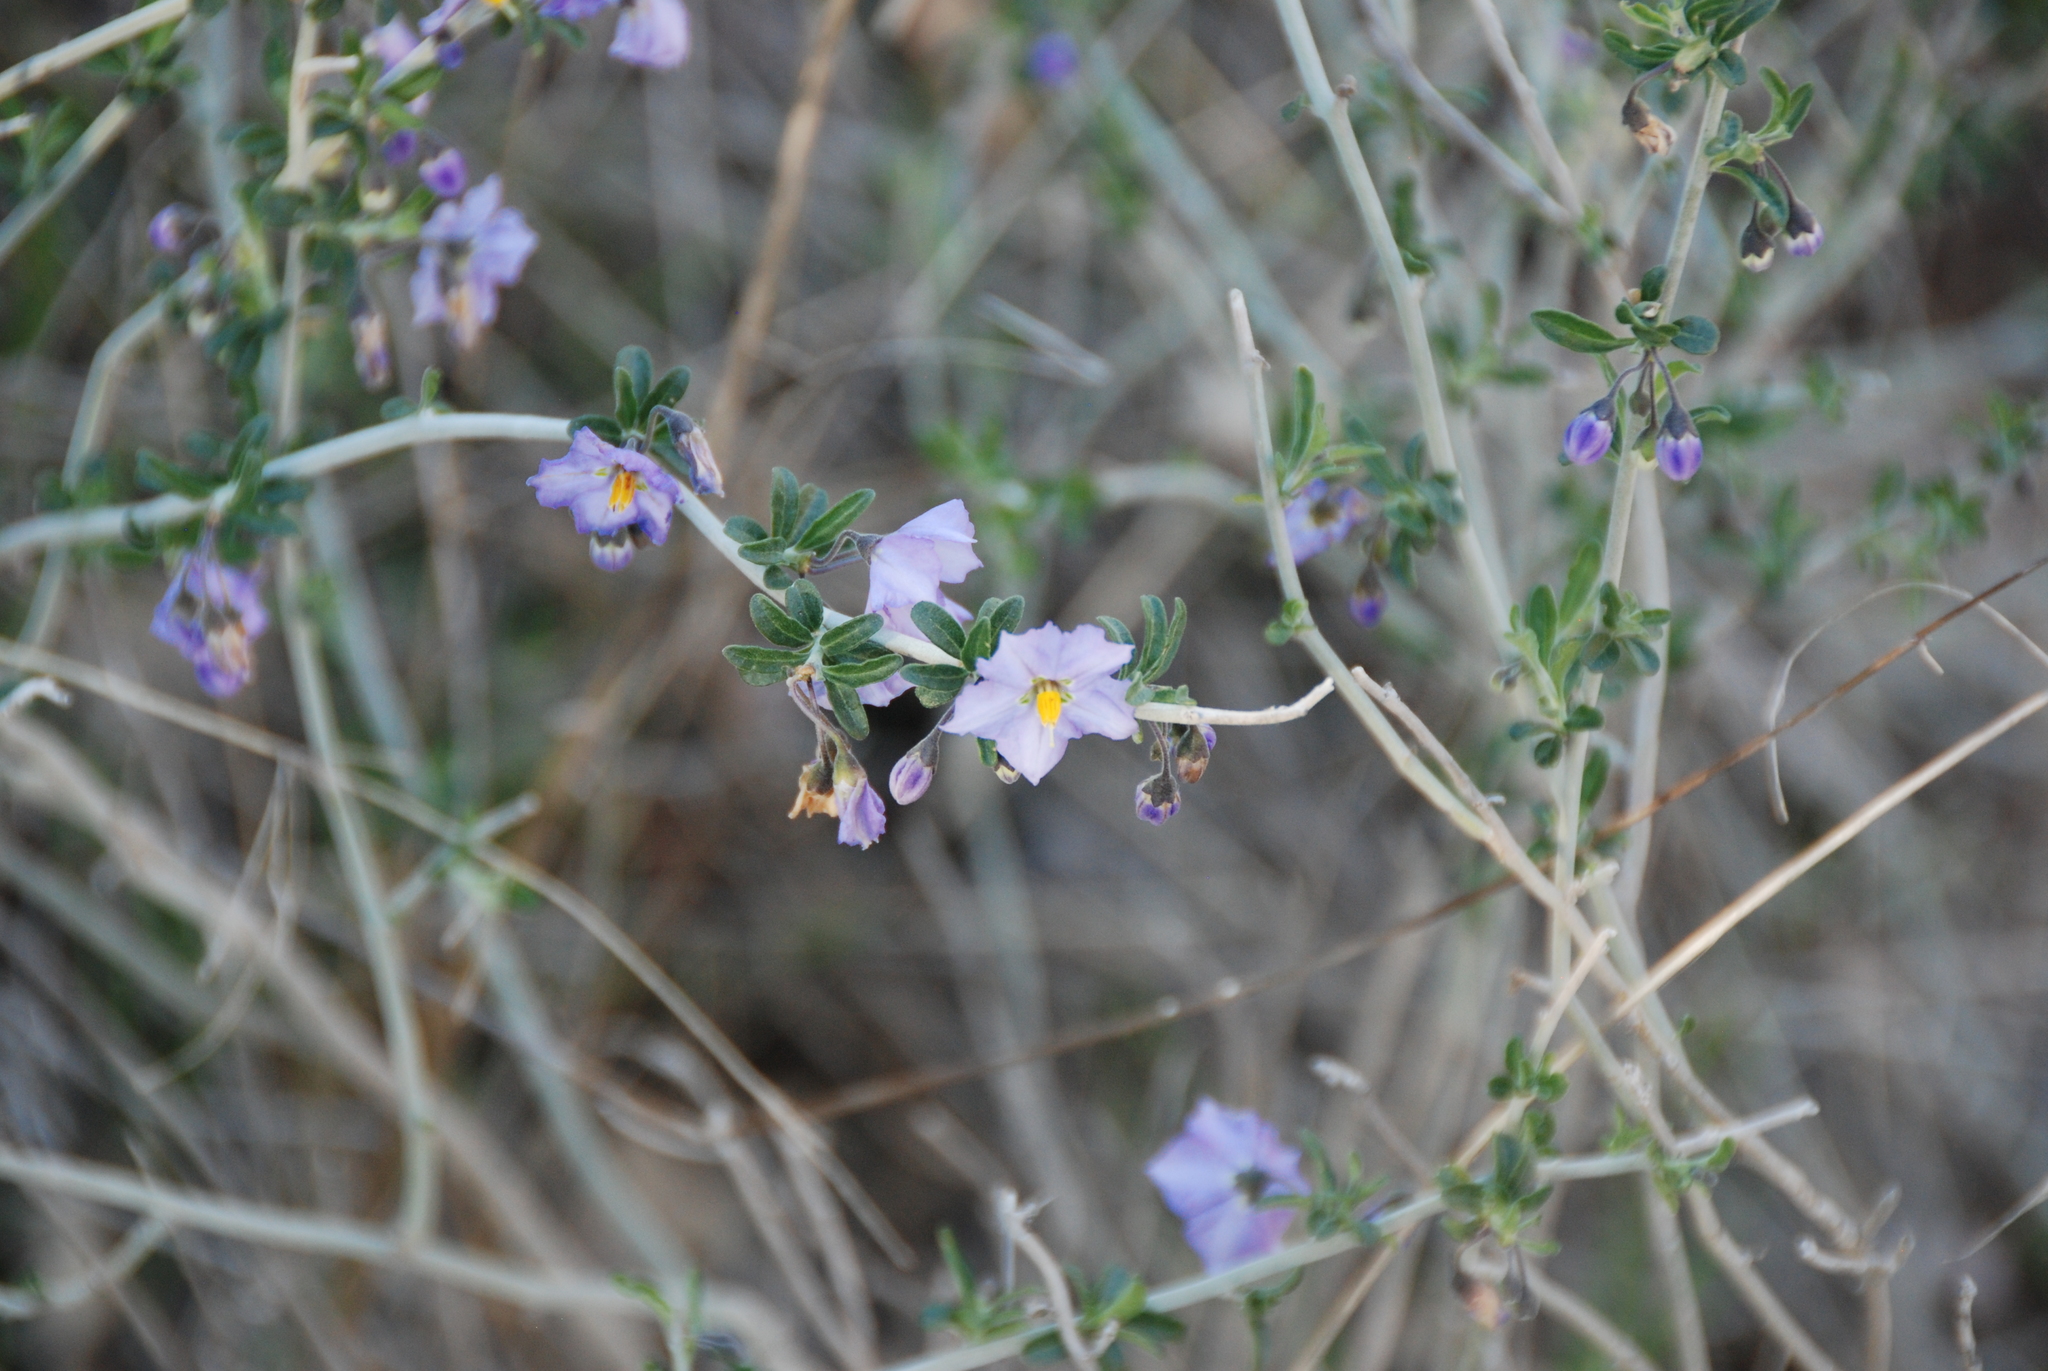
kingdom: Plantae
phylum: Tracheophyta
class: Magnoliopsida
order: Solanales
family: Solanaceae
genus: Solanum
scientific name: Solanum umbelliferum
